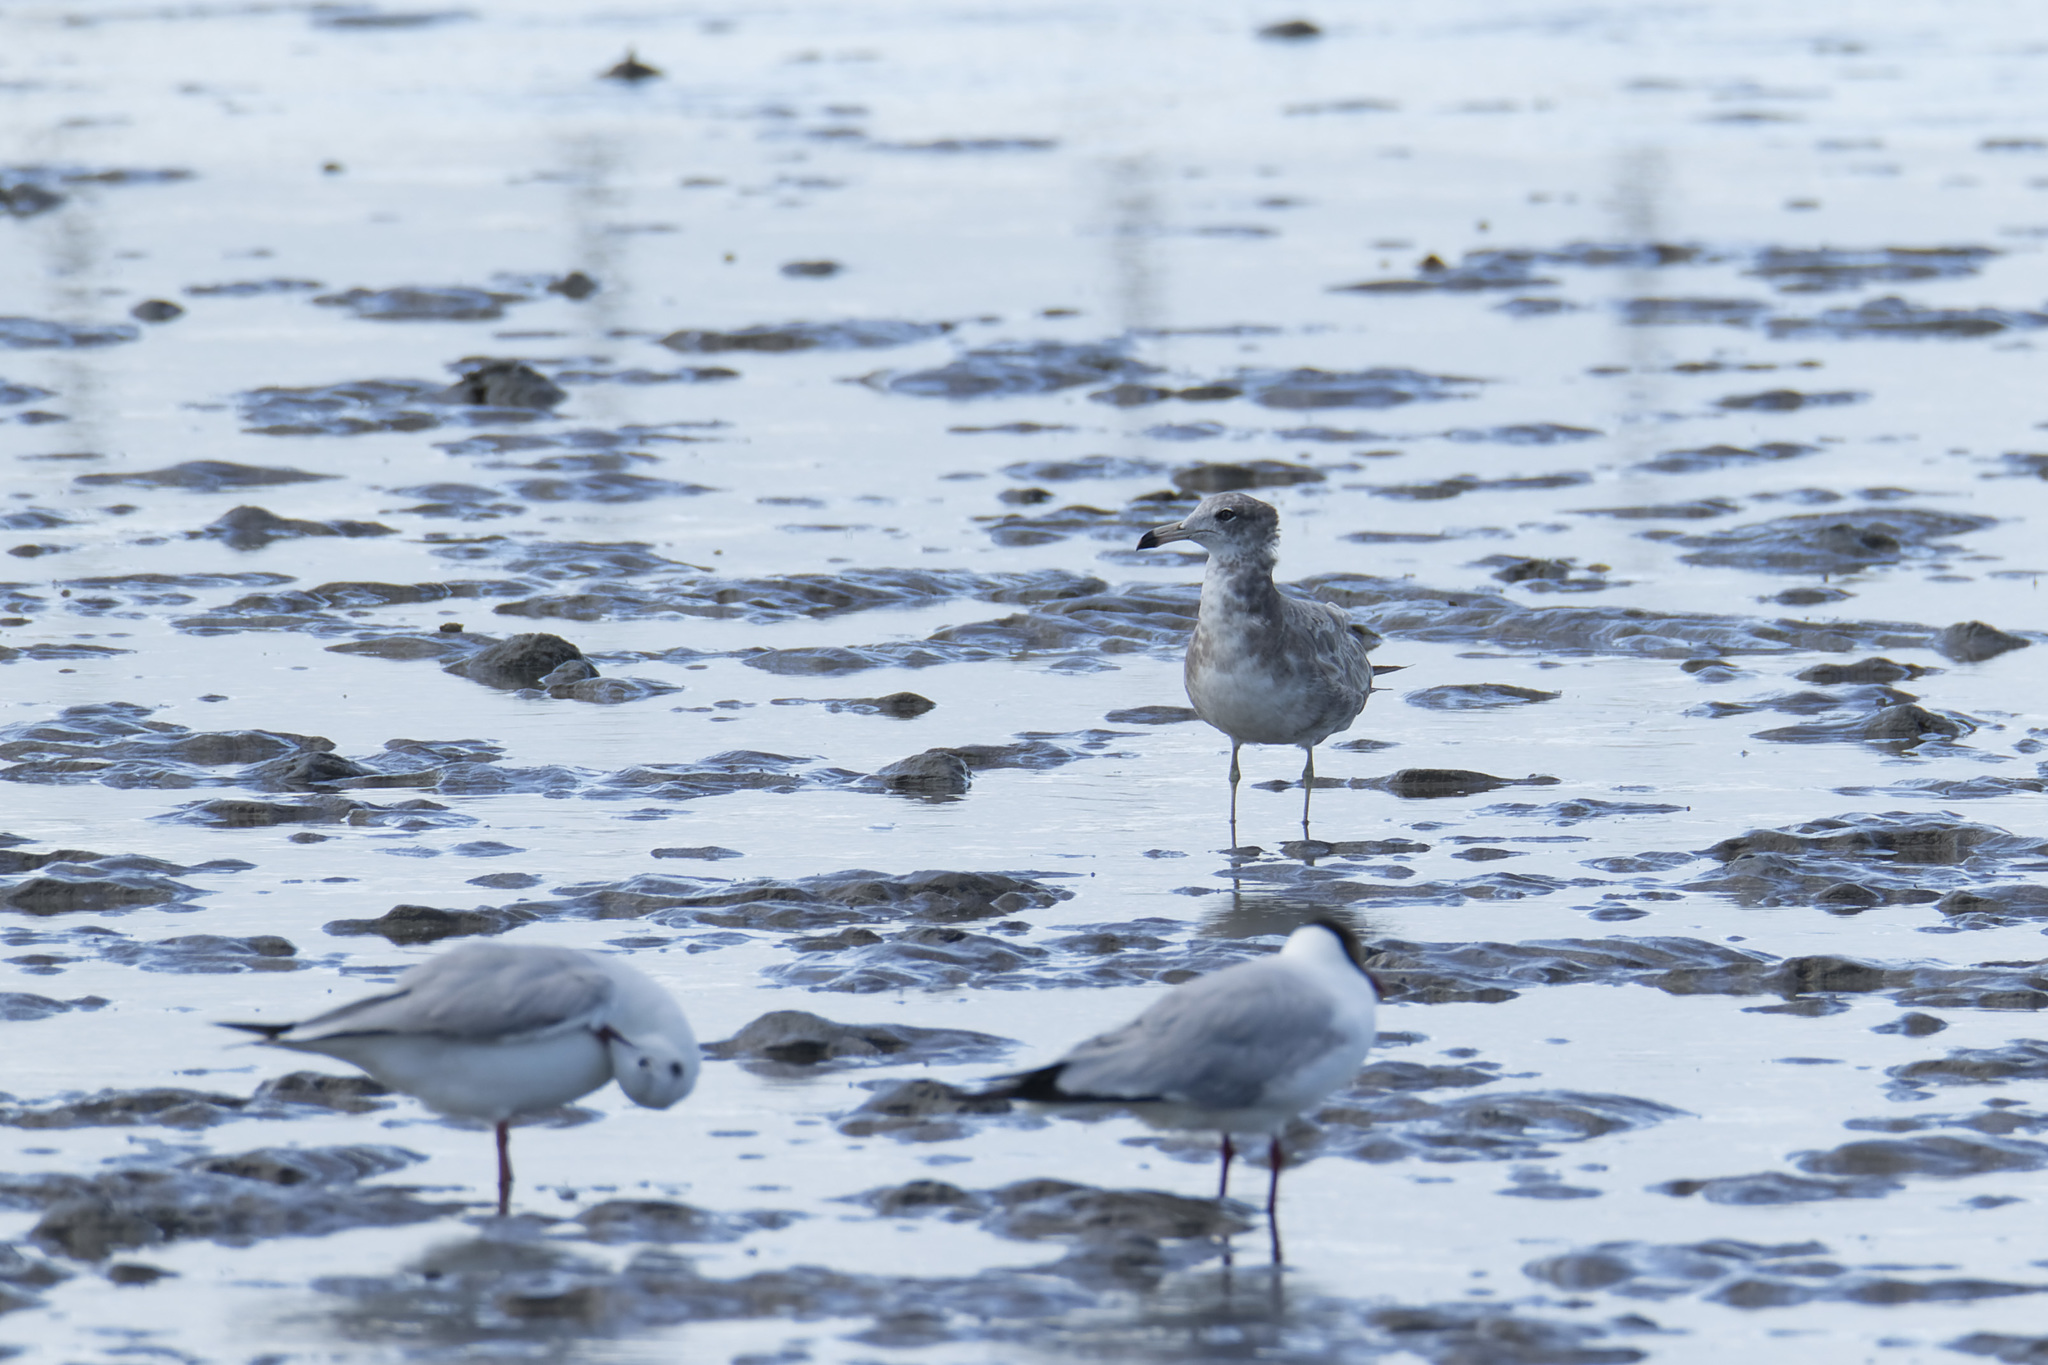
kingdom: Animalia
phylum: Chordata
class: Aves
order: Charadriiformes
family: Laridae
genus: Larus
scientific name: Larus crassirostris
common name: Black-tailed gull
